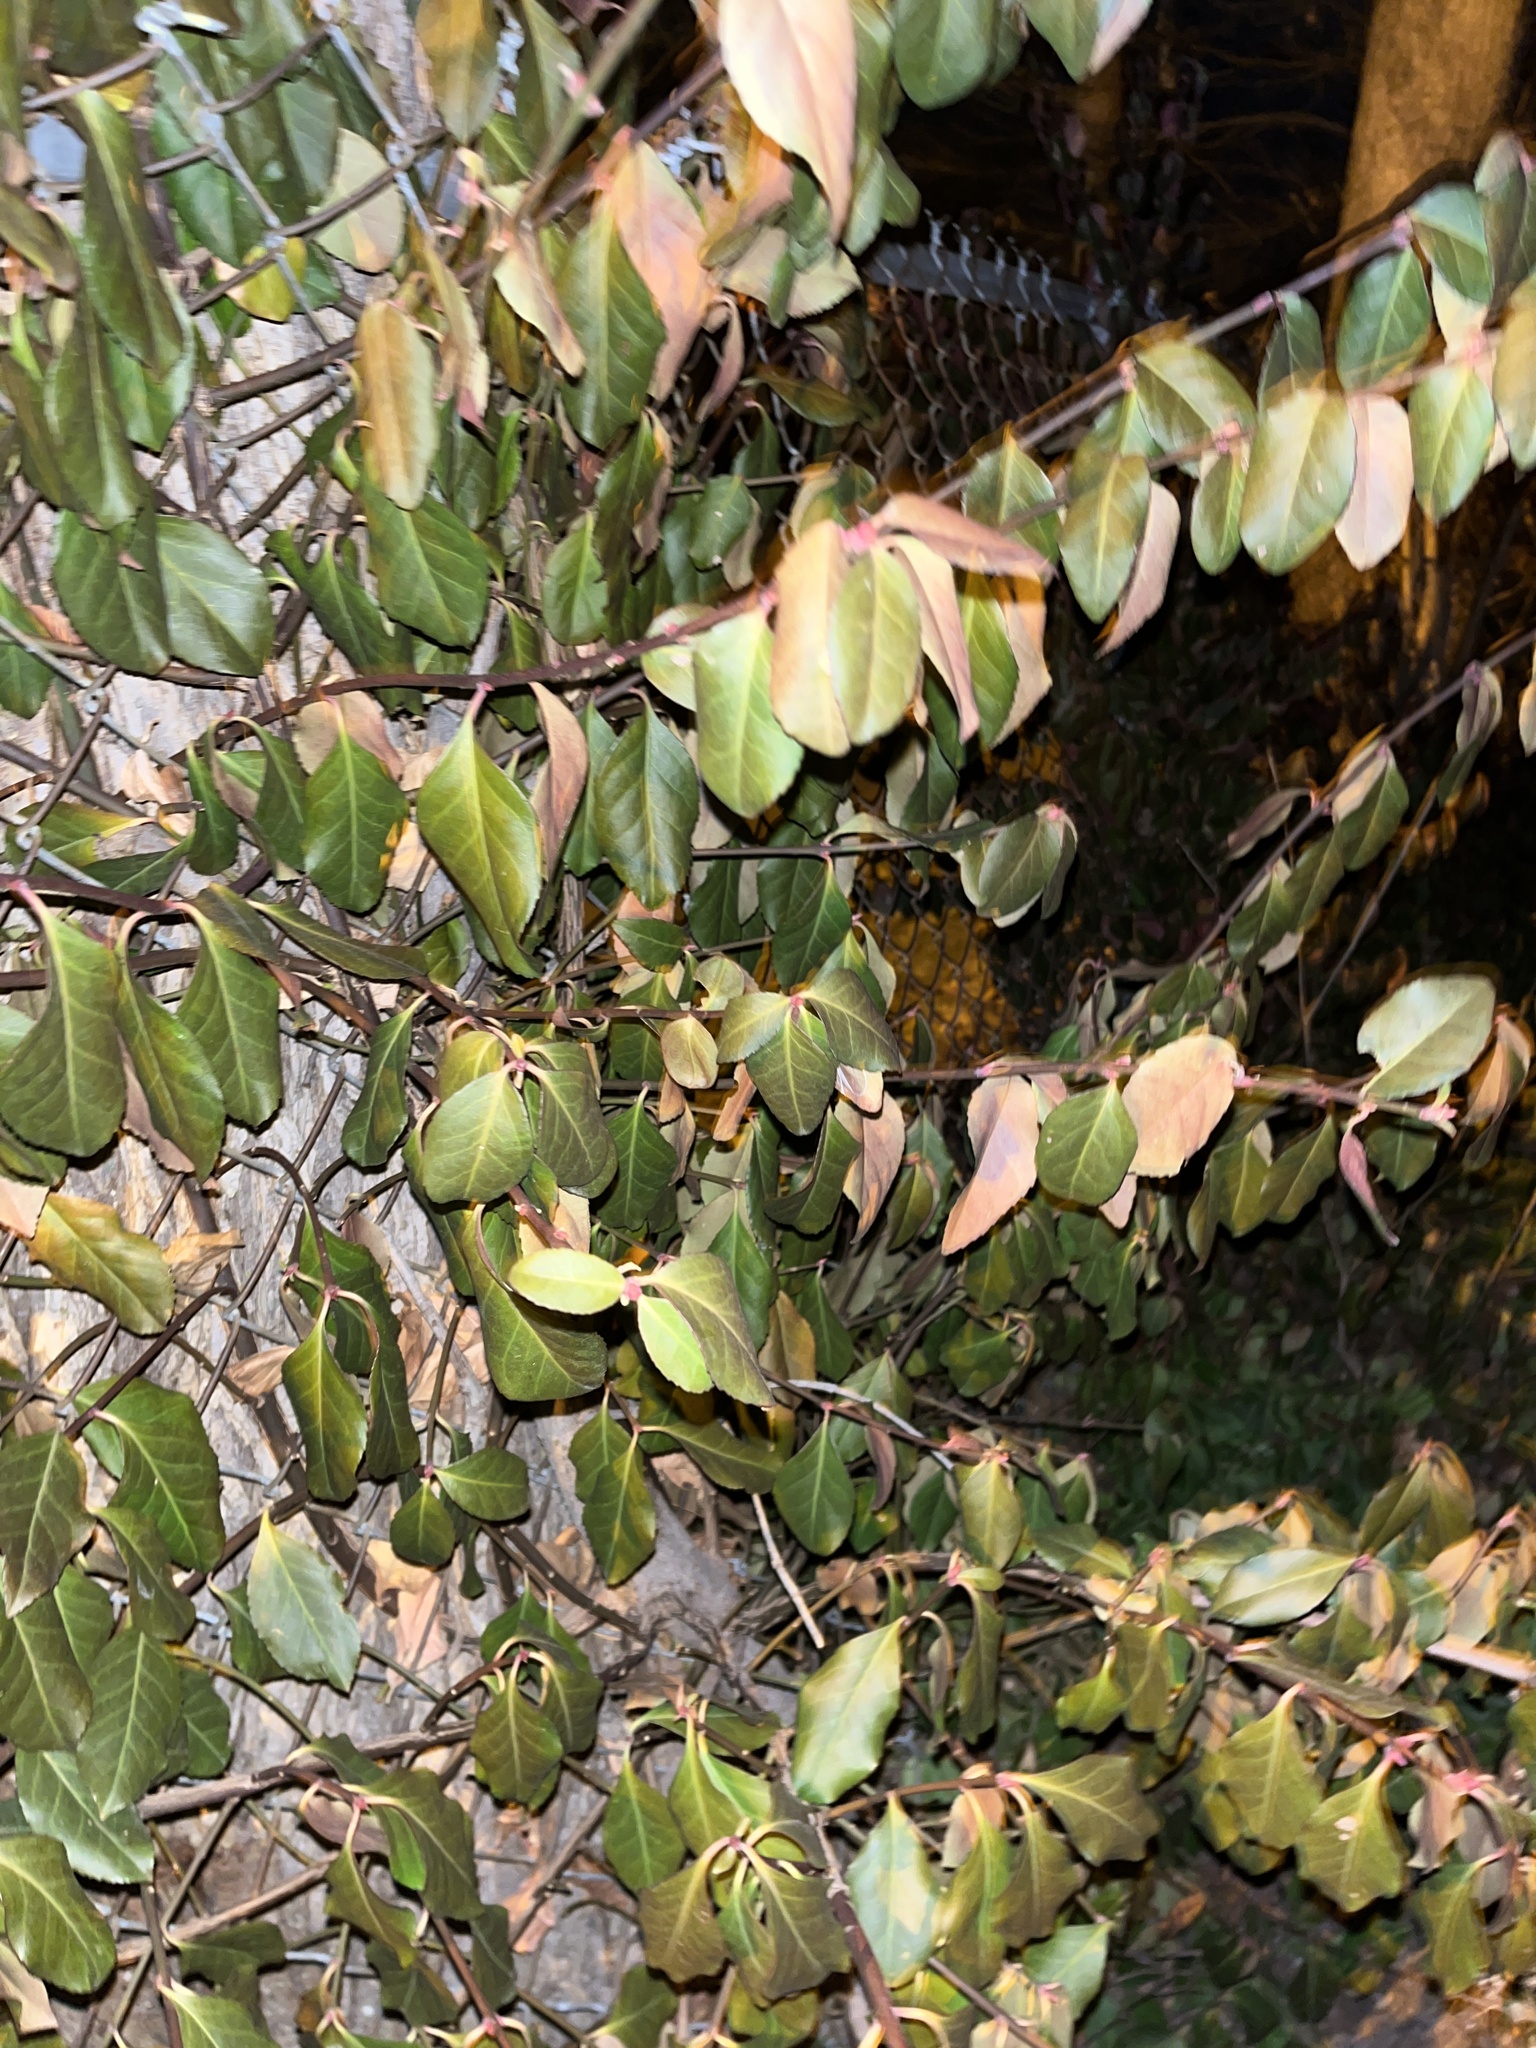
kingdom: Plantae
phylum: Tracheophyta
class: Magnoliopsida
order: Celastrales
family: Celastraceae
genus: Euonymus
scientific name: Euonymus fortunei
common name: Climbing euonymus
